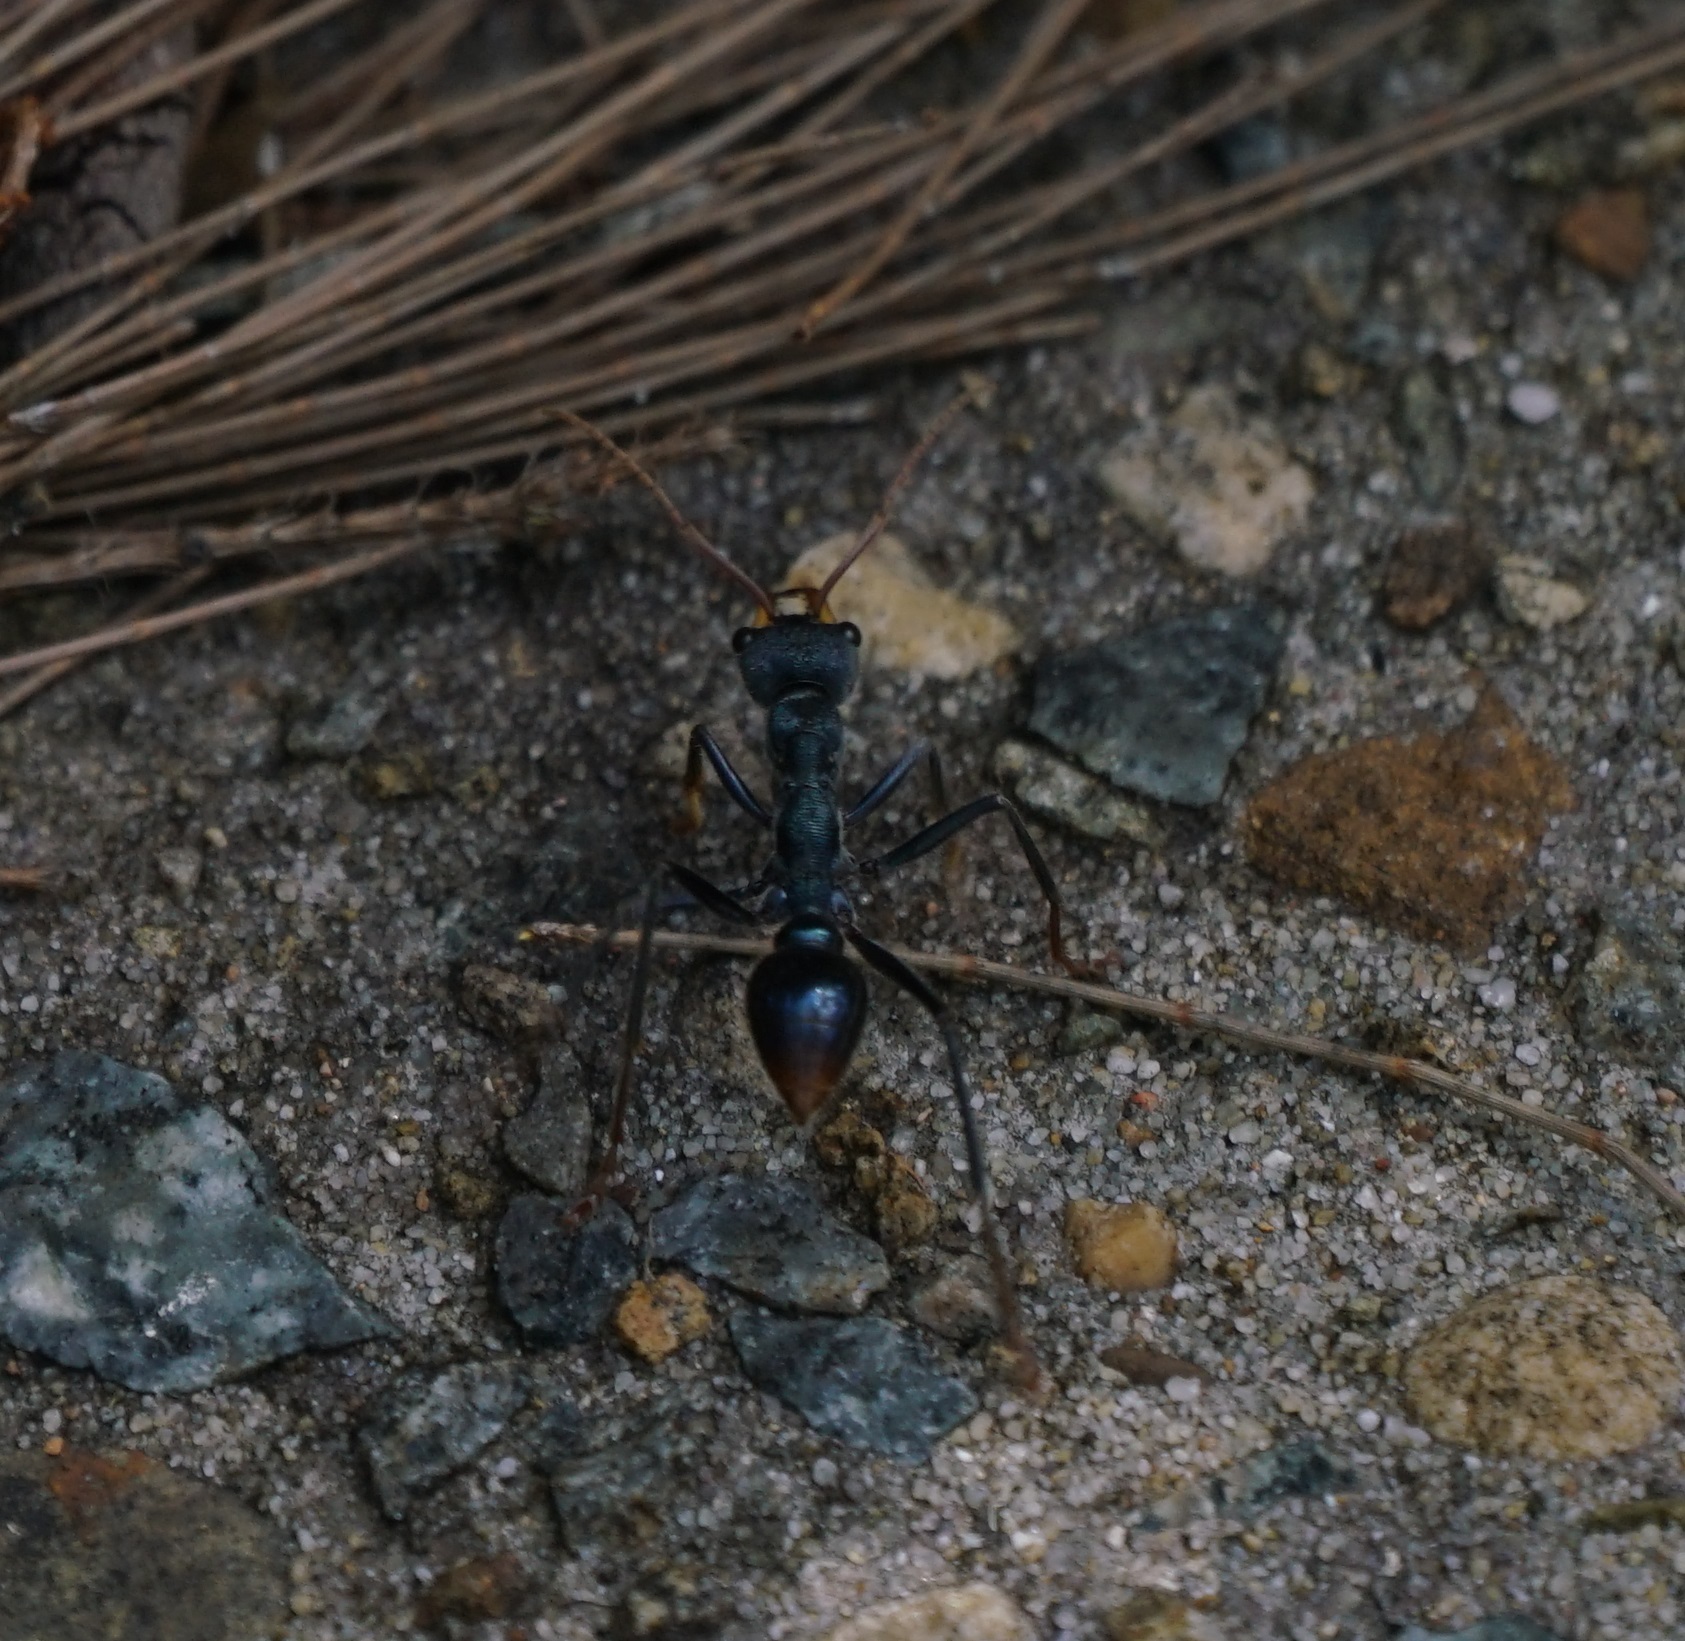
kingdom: Animalia
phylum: Arthropoda
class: Insecta
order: Hymenoptera
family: Formicidae
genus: Myrmecia
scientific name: Myrmecia tarsata
